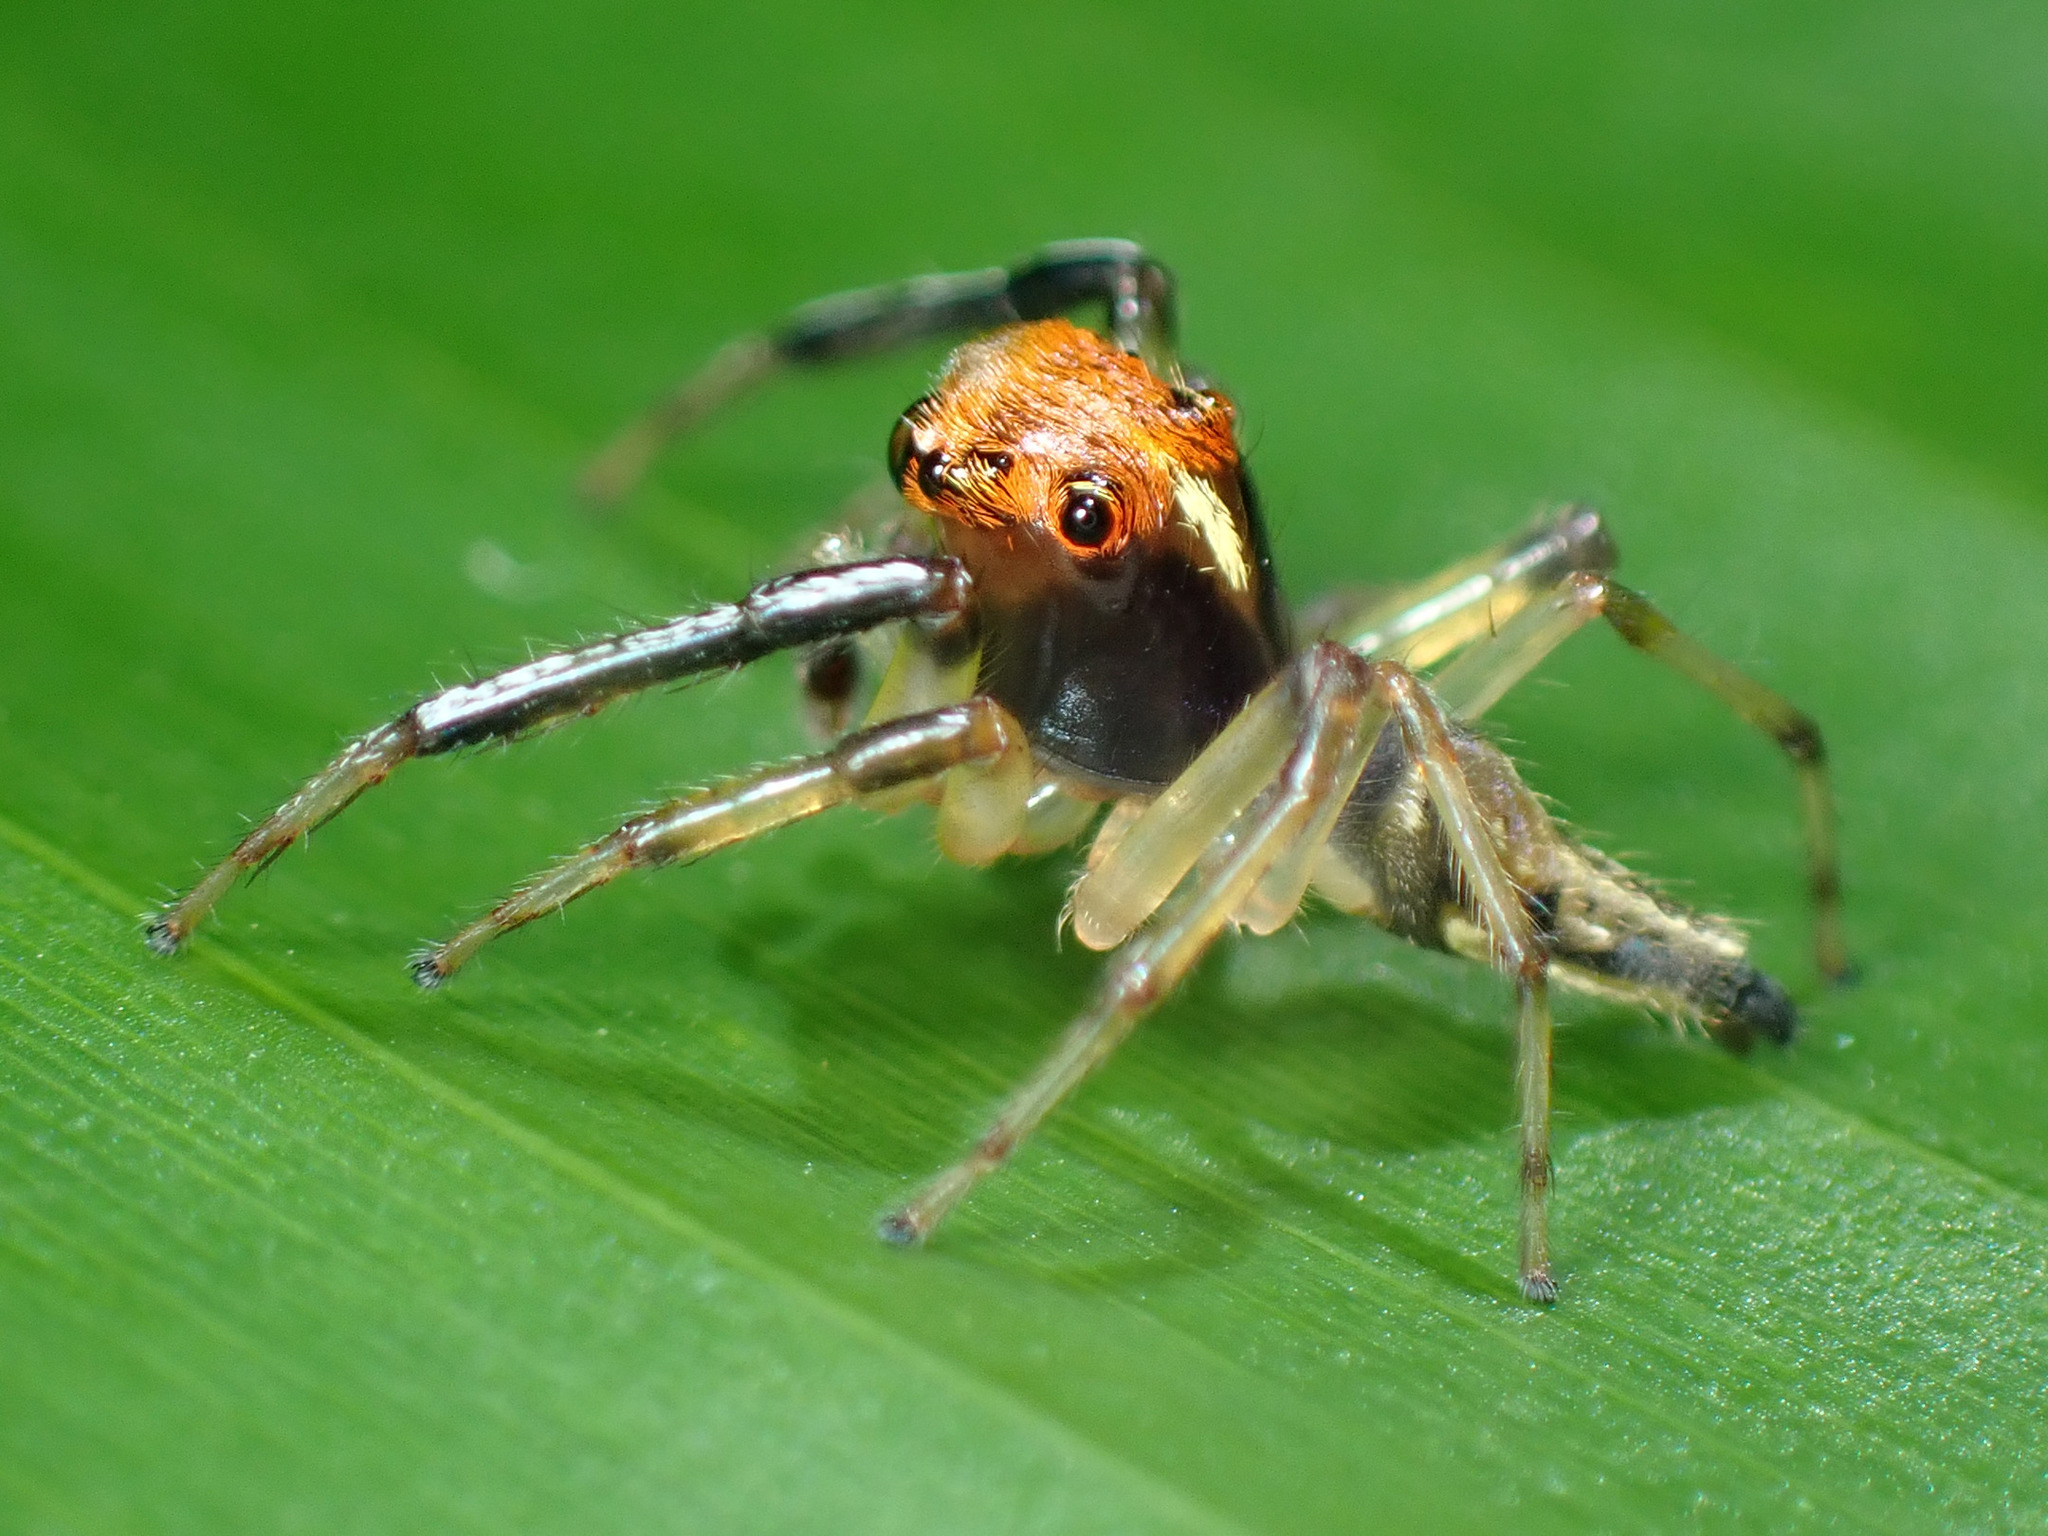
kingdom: Animalia
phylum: Arthropoda
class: Arachnida
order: Araneae
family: Salticidae
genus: Hypaeus
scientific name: Hypaeus benignus
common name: Jumping spiders
